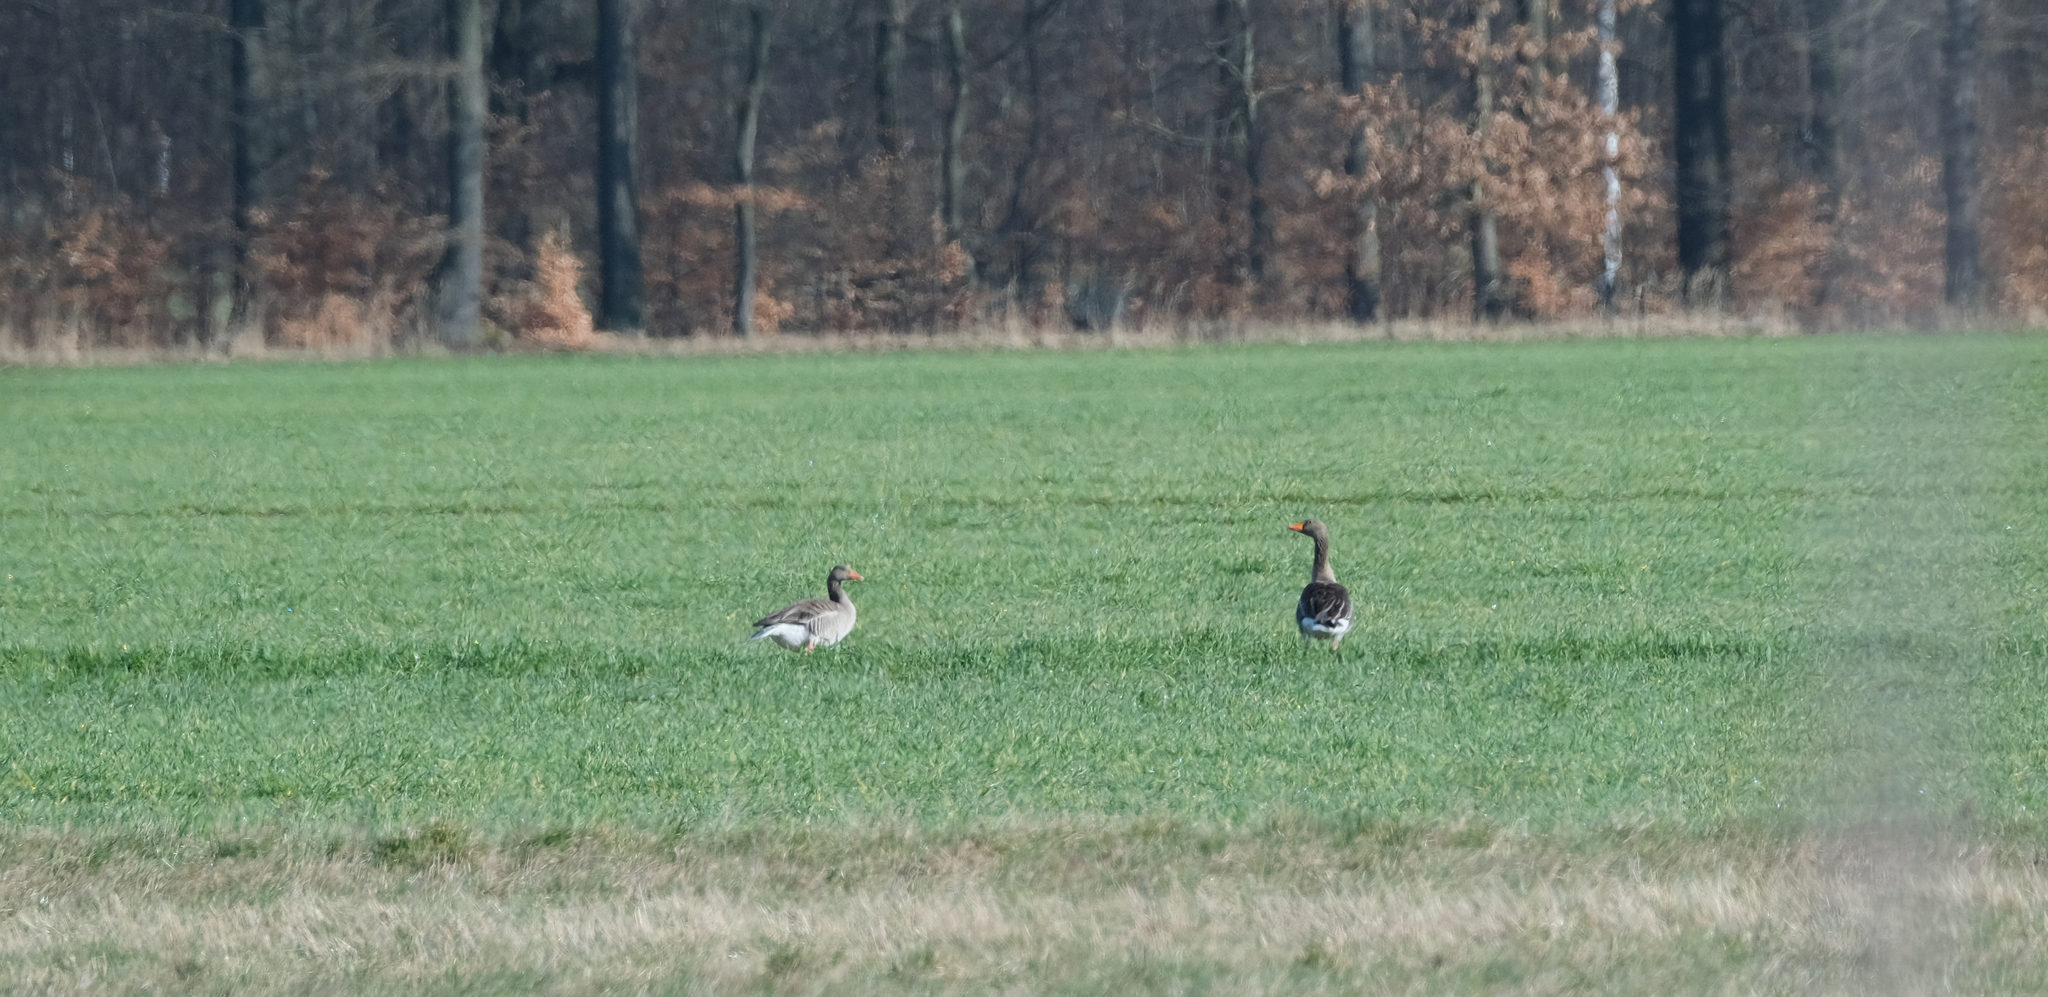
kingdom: Animalia
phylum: Chordata
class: Aves
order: Anseriformes
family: Anatidae
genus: Anser
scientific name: Anser anser
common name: Greylag goose
